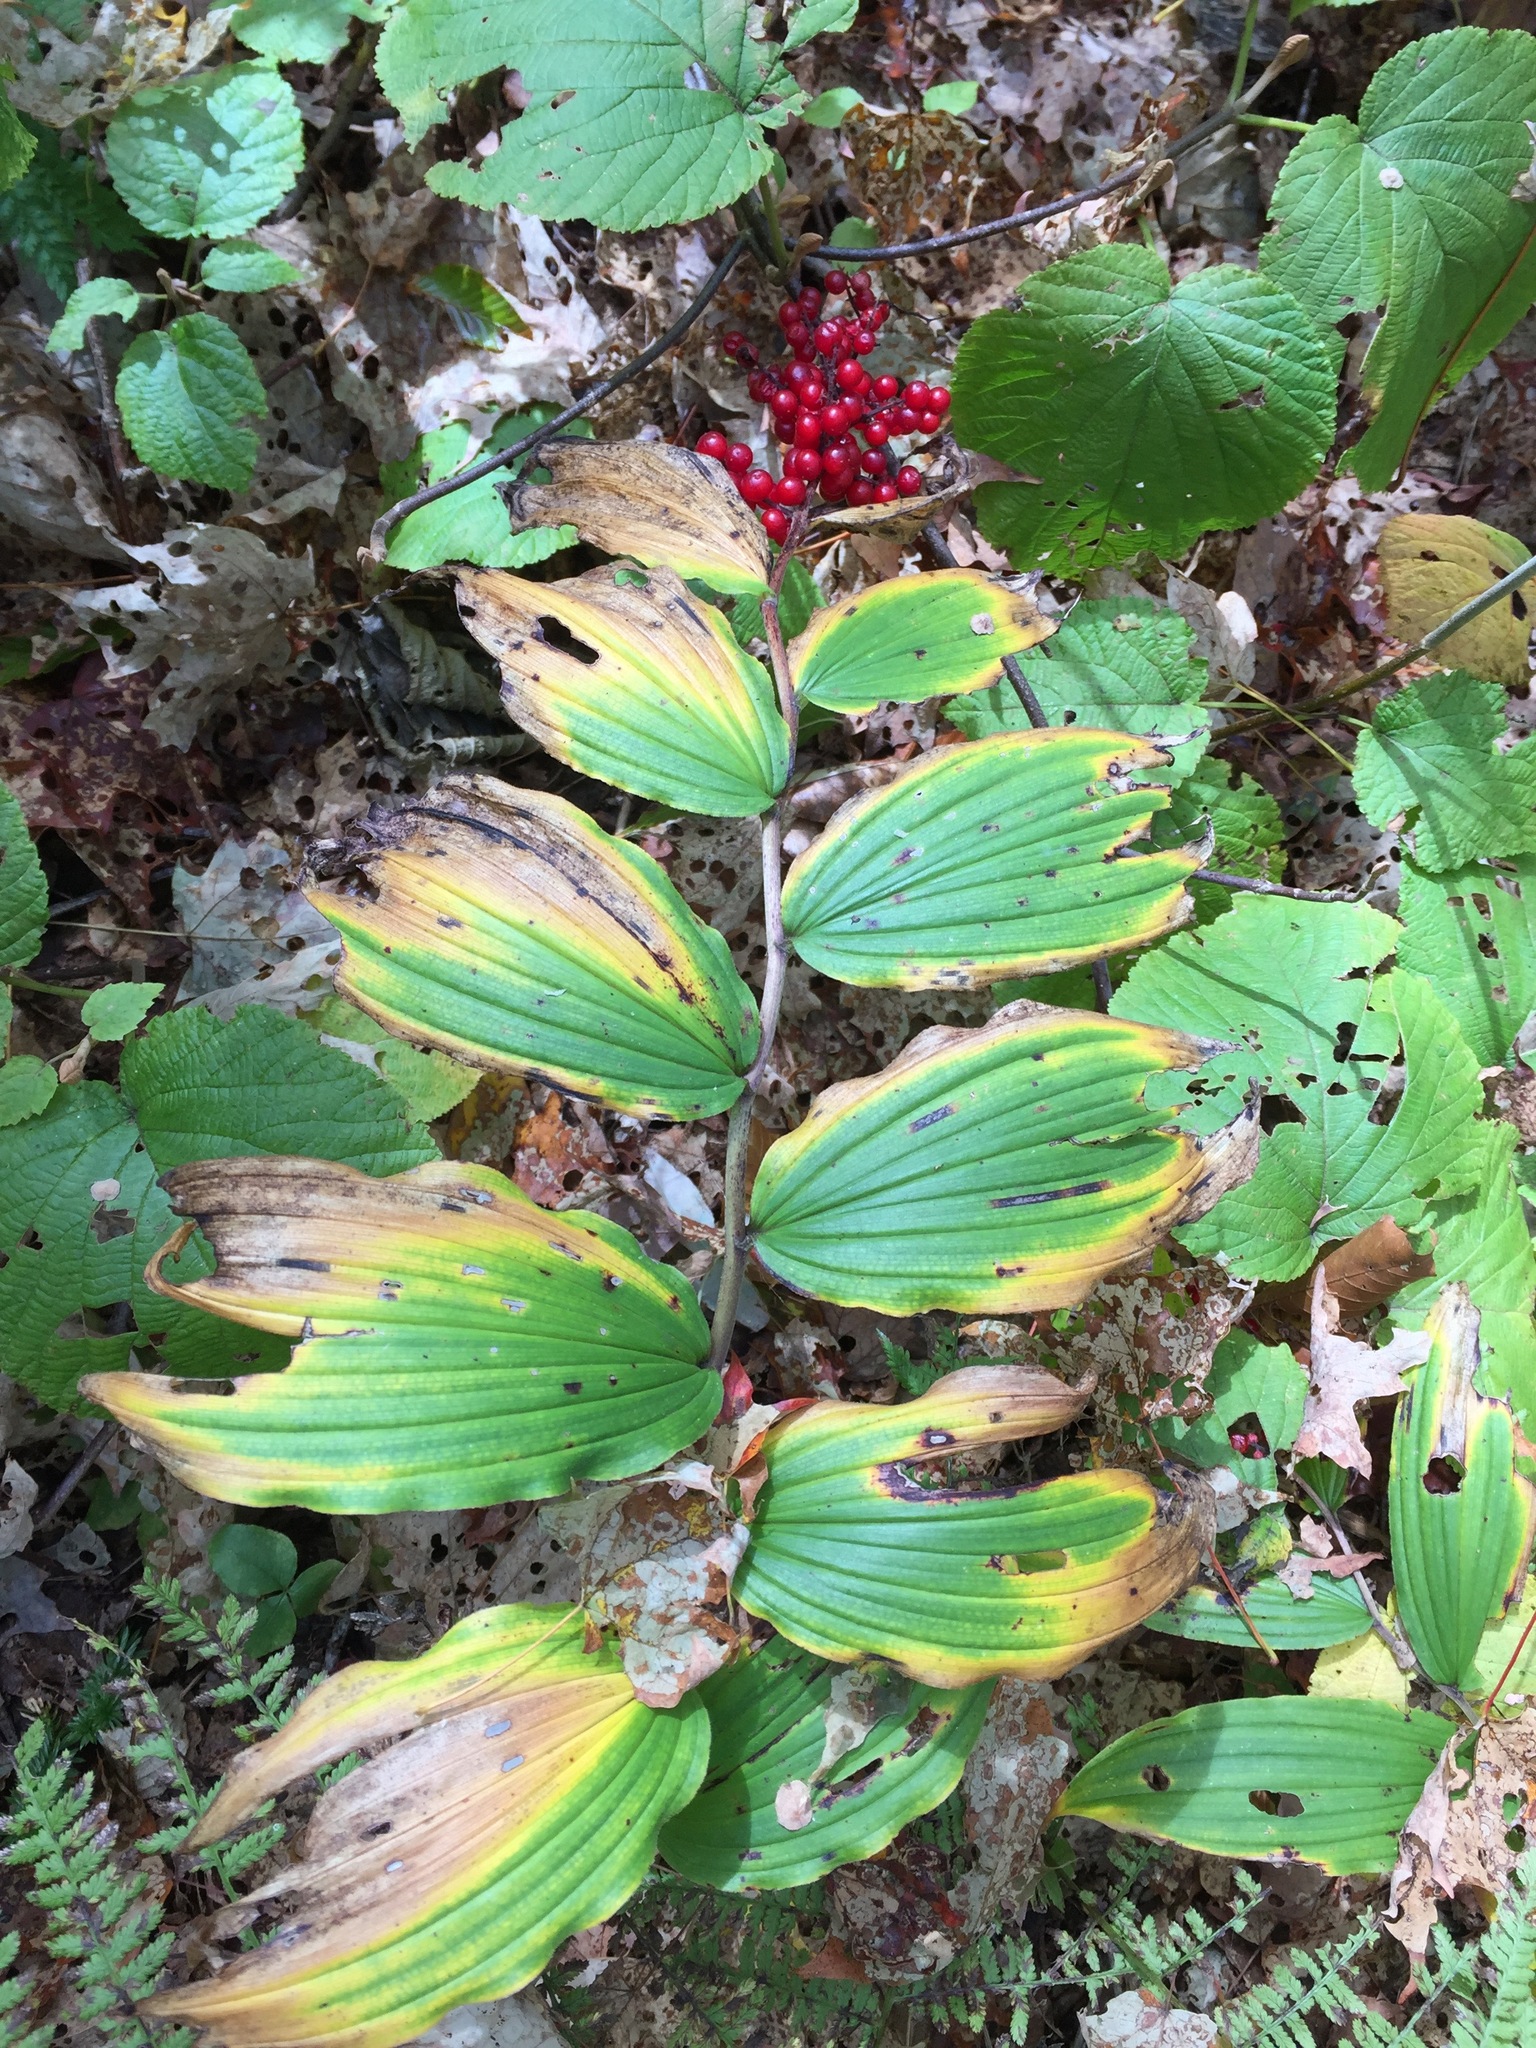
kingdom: Plantae
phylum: Tracheophyta
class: Liliopsida
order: Asparagales
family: Asparagaceae
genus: Maianthemum
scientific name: Maianthemum racemosum
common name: False spikenard
